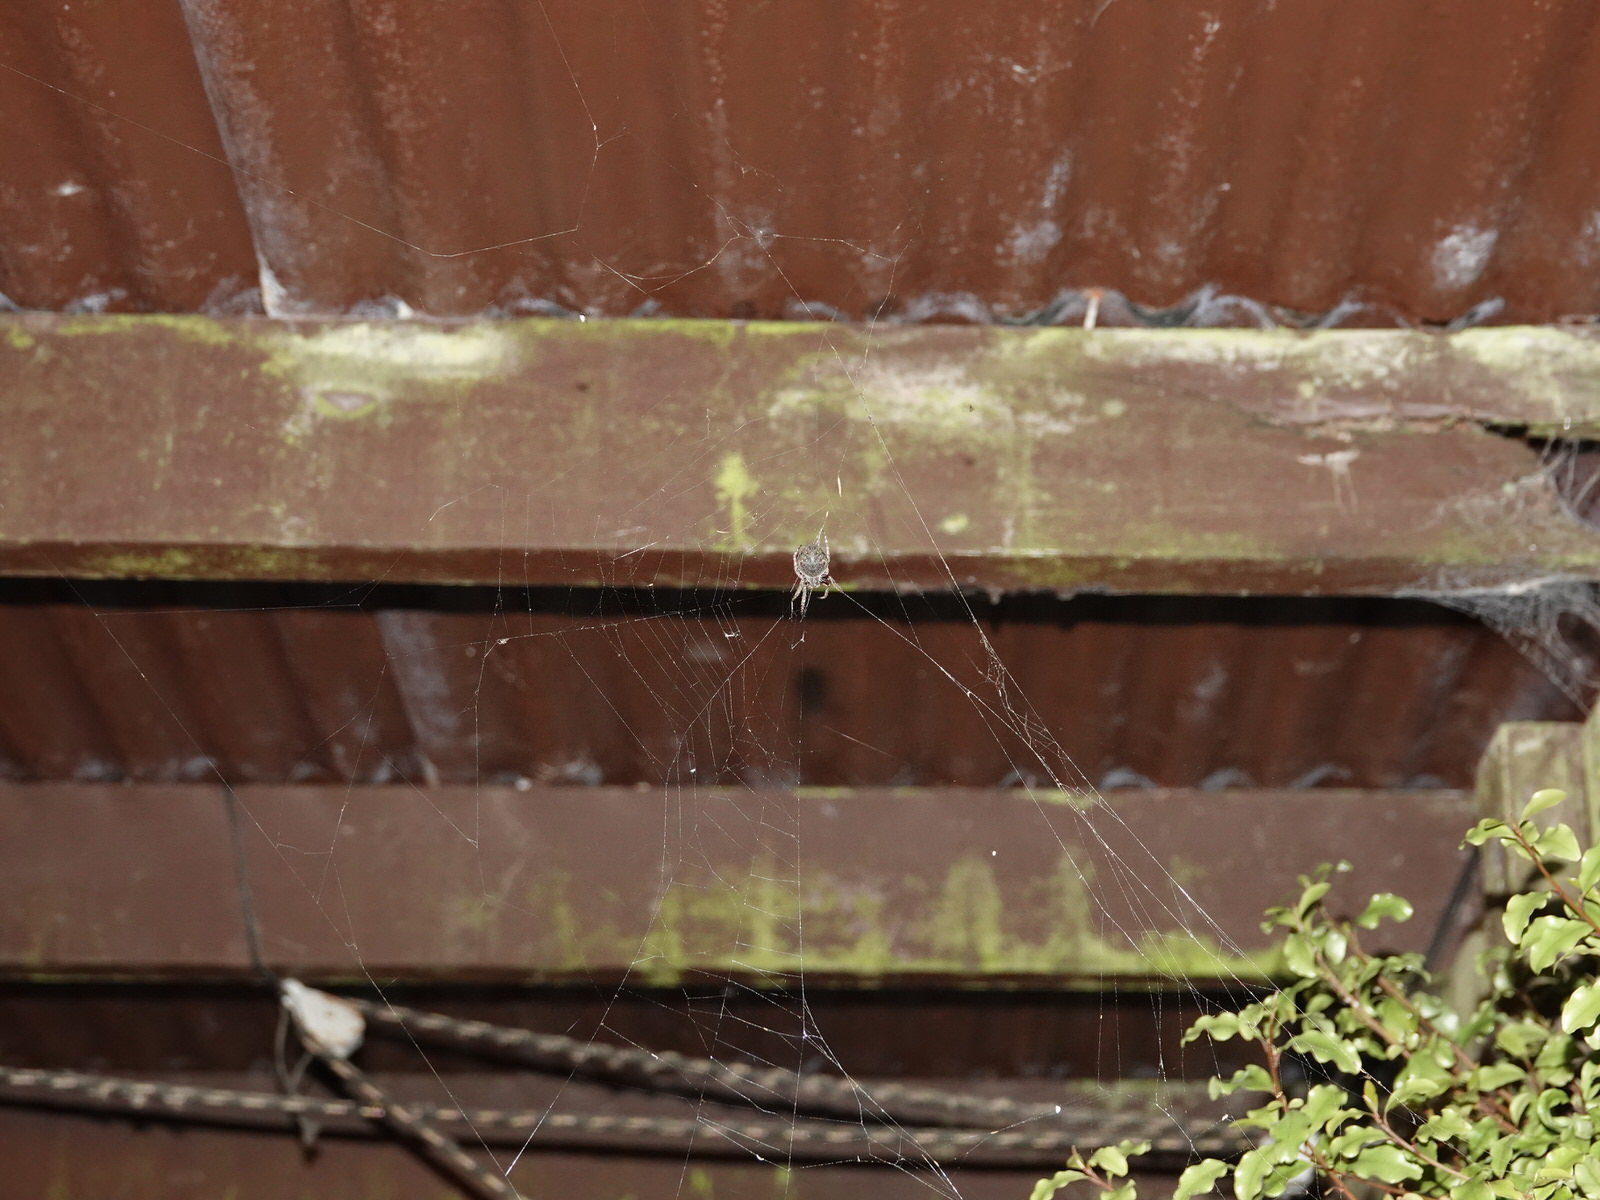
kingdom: Animalia
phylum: Arthropoda
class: Arachnida
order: Araneae
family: Araneidae
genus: Eriophora
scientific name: Eriophora pustulosa
